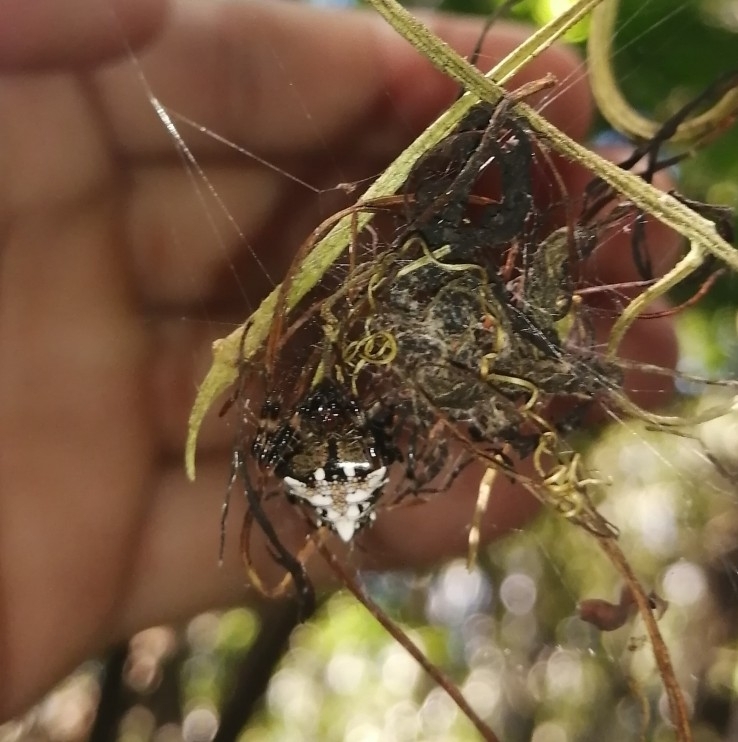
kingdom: Animalia
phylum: Arthropoda
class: Arachnida
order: Araneae
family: Araneidae
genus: Verrucosa
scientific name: Verrucosa arenata
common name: Orb weavers
